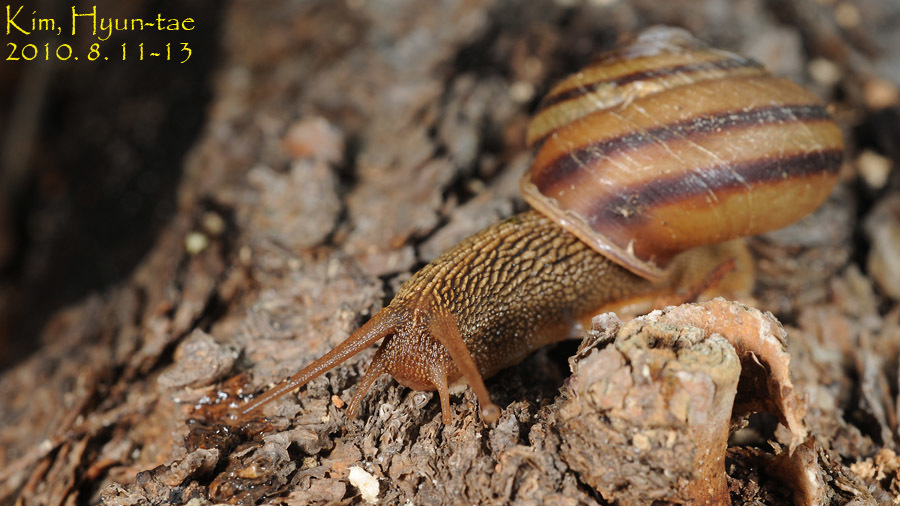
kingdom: Animalia
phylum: Mollusca
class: Gastropoda
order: Stylommatophora
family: Camaenidae
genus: Nesiohelix
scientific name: Nesiohelix samarangae
